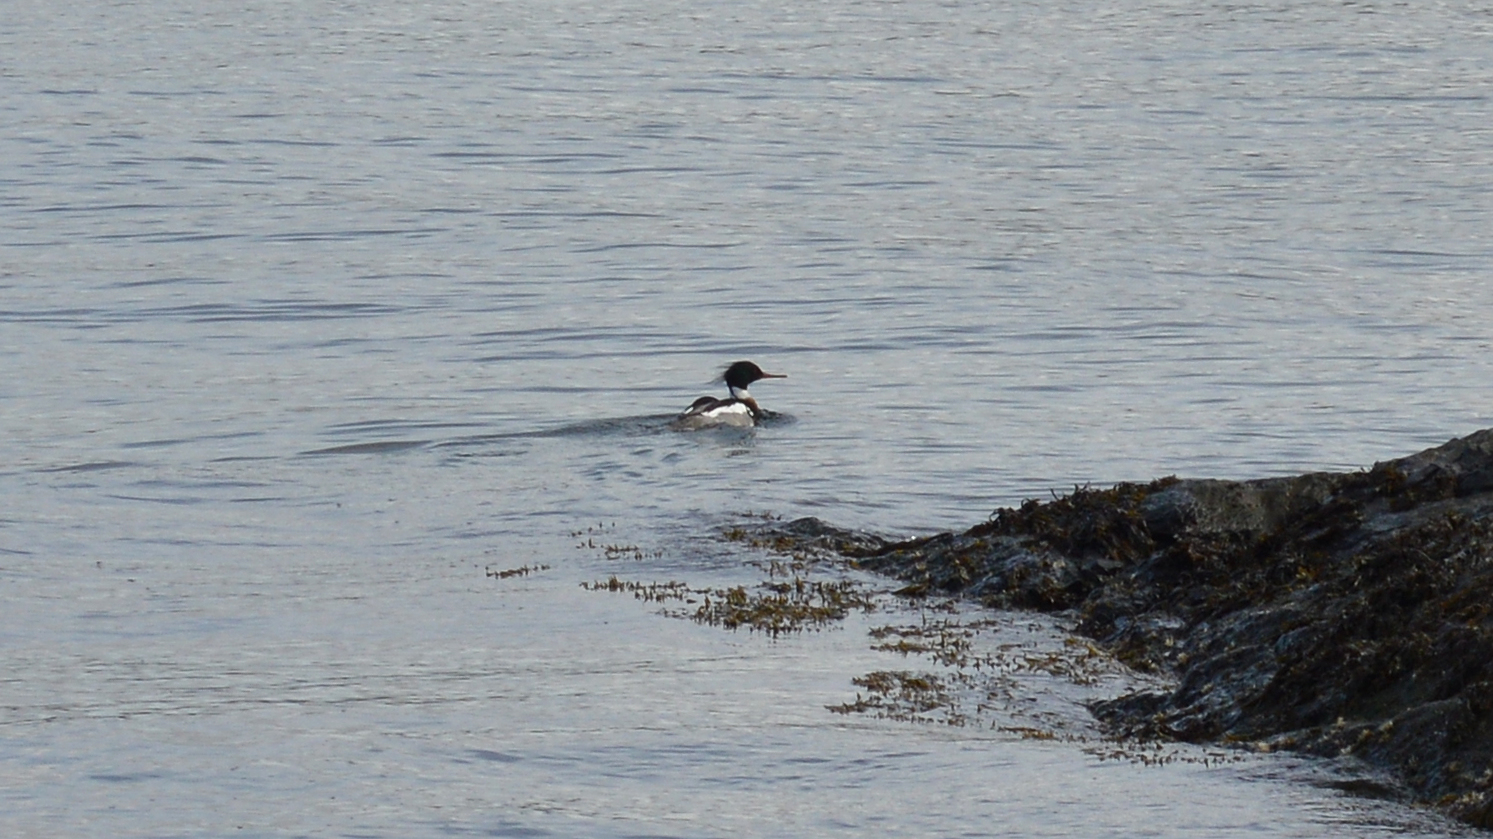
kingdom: Animalia
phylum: Chordata
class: Aves
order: Anseriformes
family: Anatidae
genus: Mergus
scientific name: Mergus serrator
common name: Red-breasted merganser
